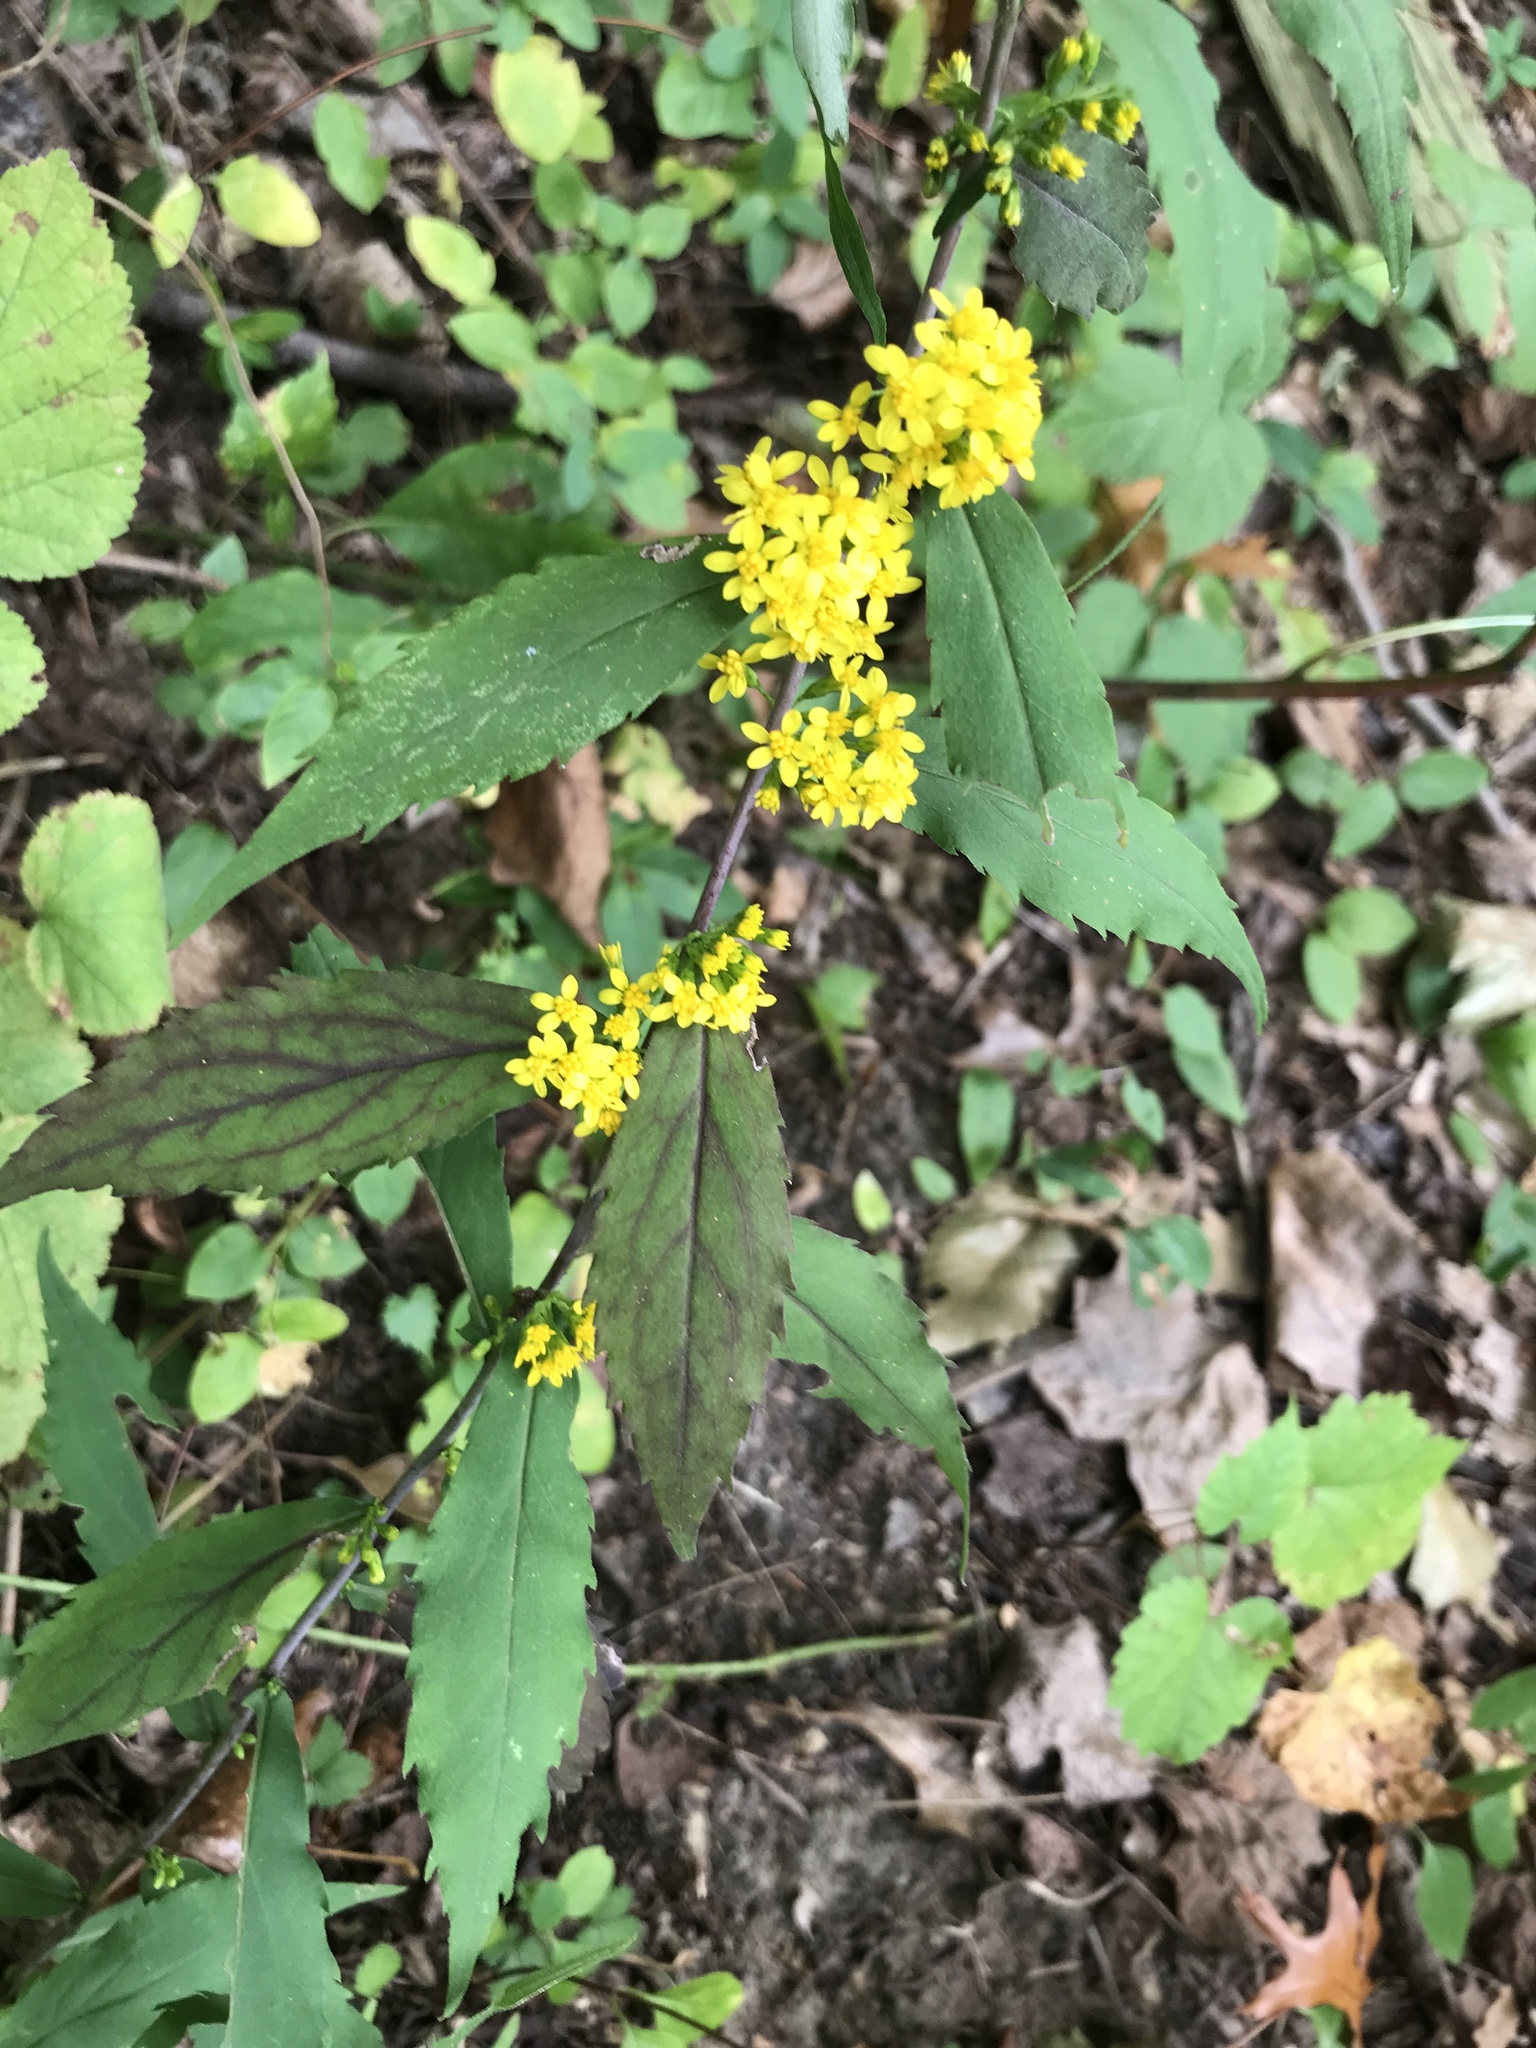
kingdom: Plantae
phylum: Tracheophyta
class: Magnoliopsida
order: Asterales
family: Asteraceae
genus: Solidago
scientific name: Solidago caesia
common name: Woodland goldenrod
